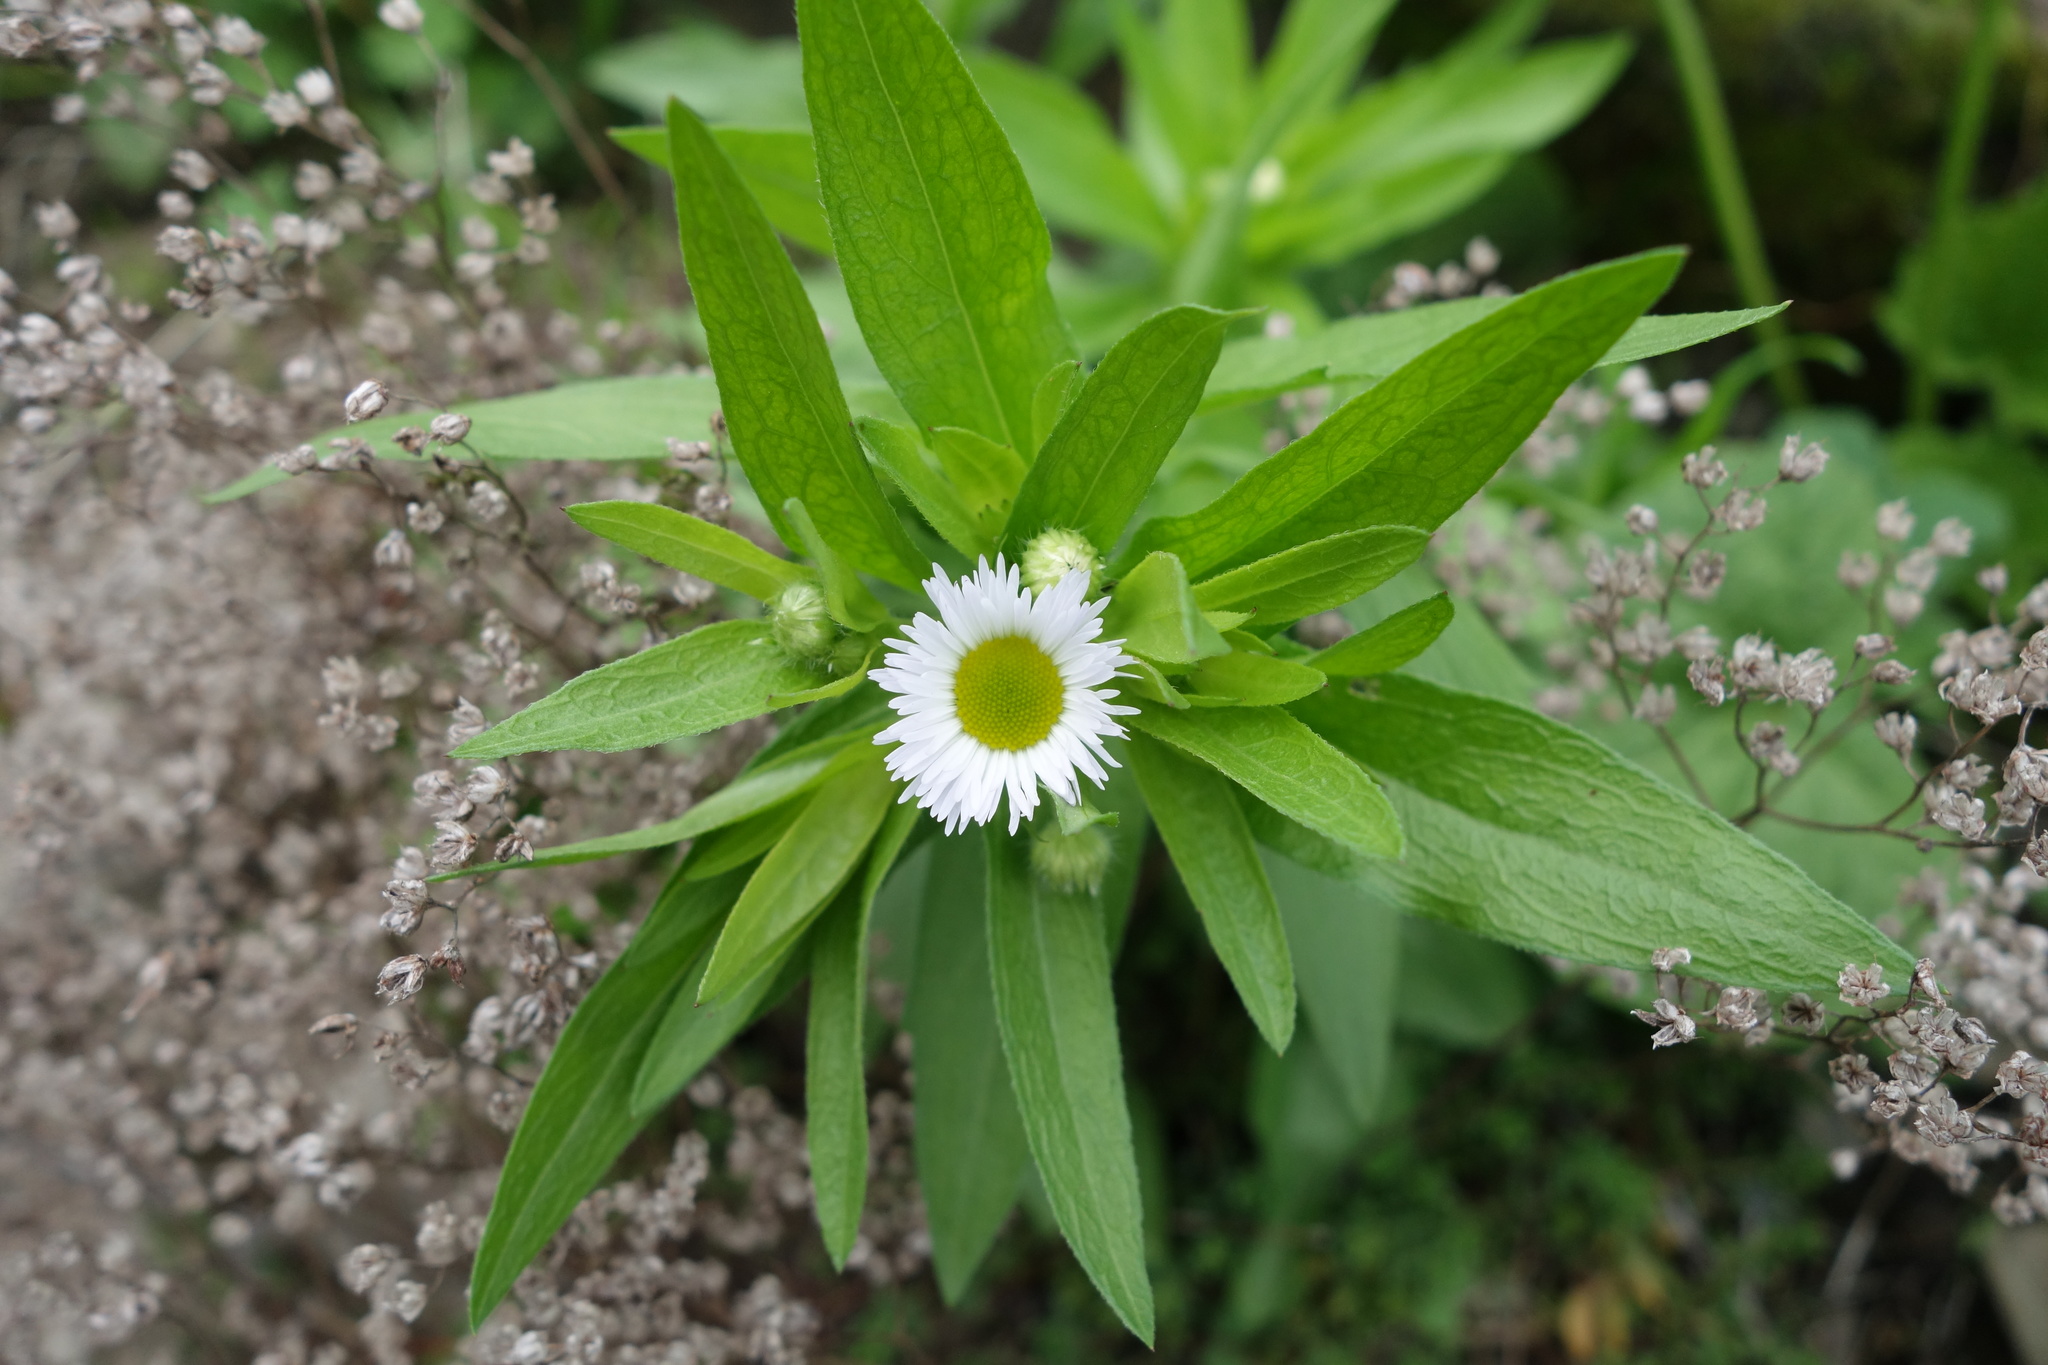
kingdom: Plantae
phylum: Tracheophyta
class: Magnoliopsida
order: Asterales
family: Asteraceae
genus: Erigeron
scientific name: Erigeron annuus
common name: Tall fleabane
